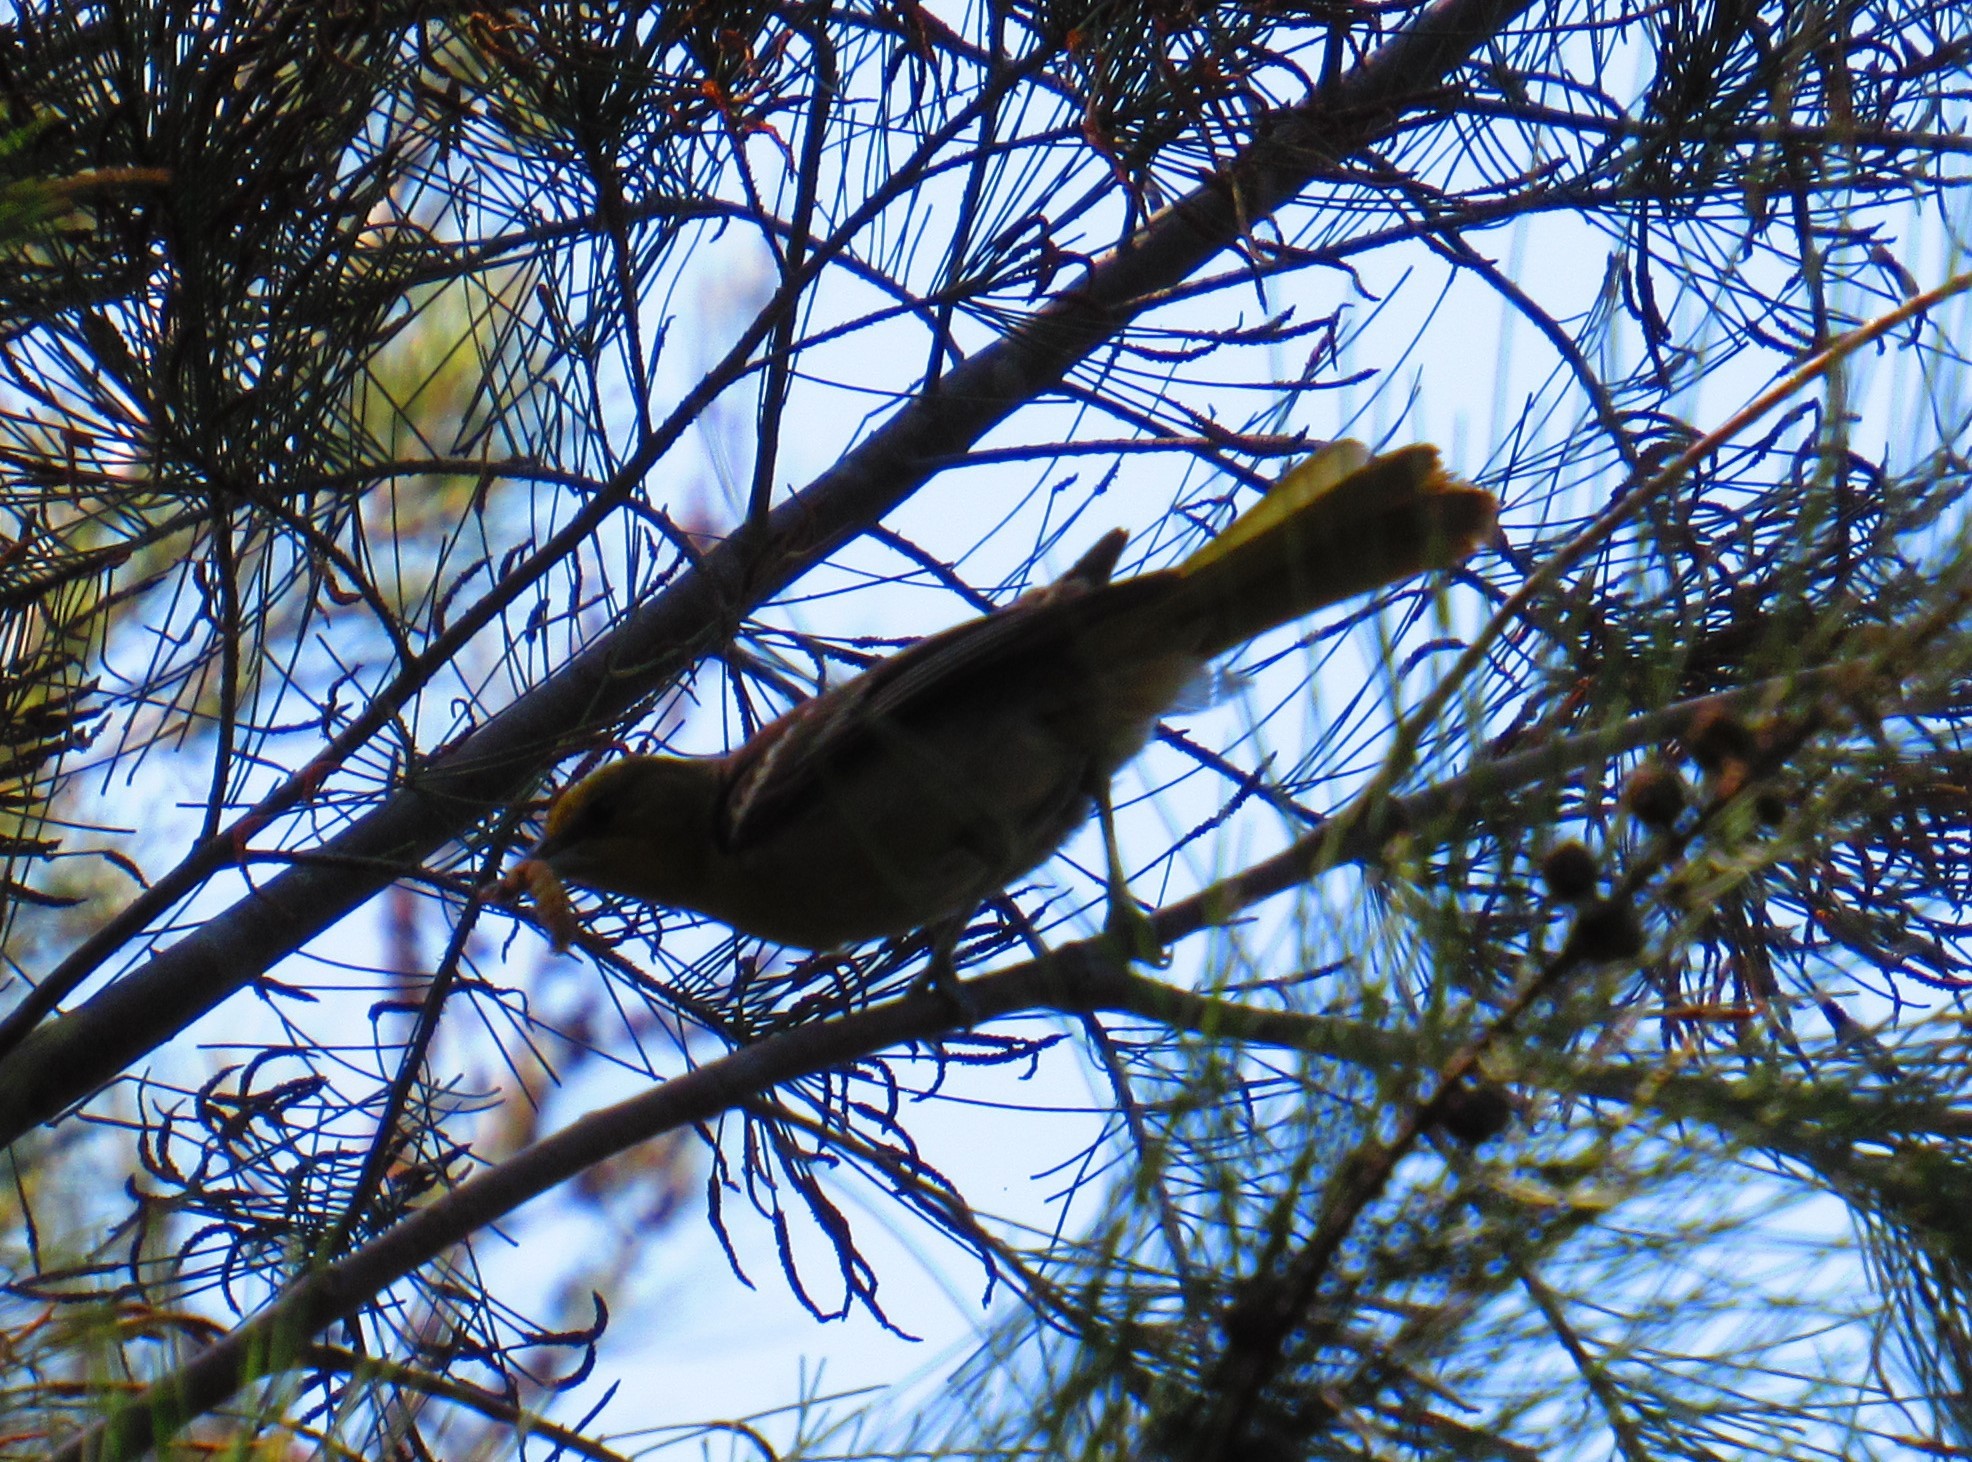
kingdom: Animalia
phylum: Chordata
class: Aves
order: Passeriformes
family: Icteridae
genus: Icterus
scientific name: Icterus abeillei
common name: Black-backed oriole
